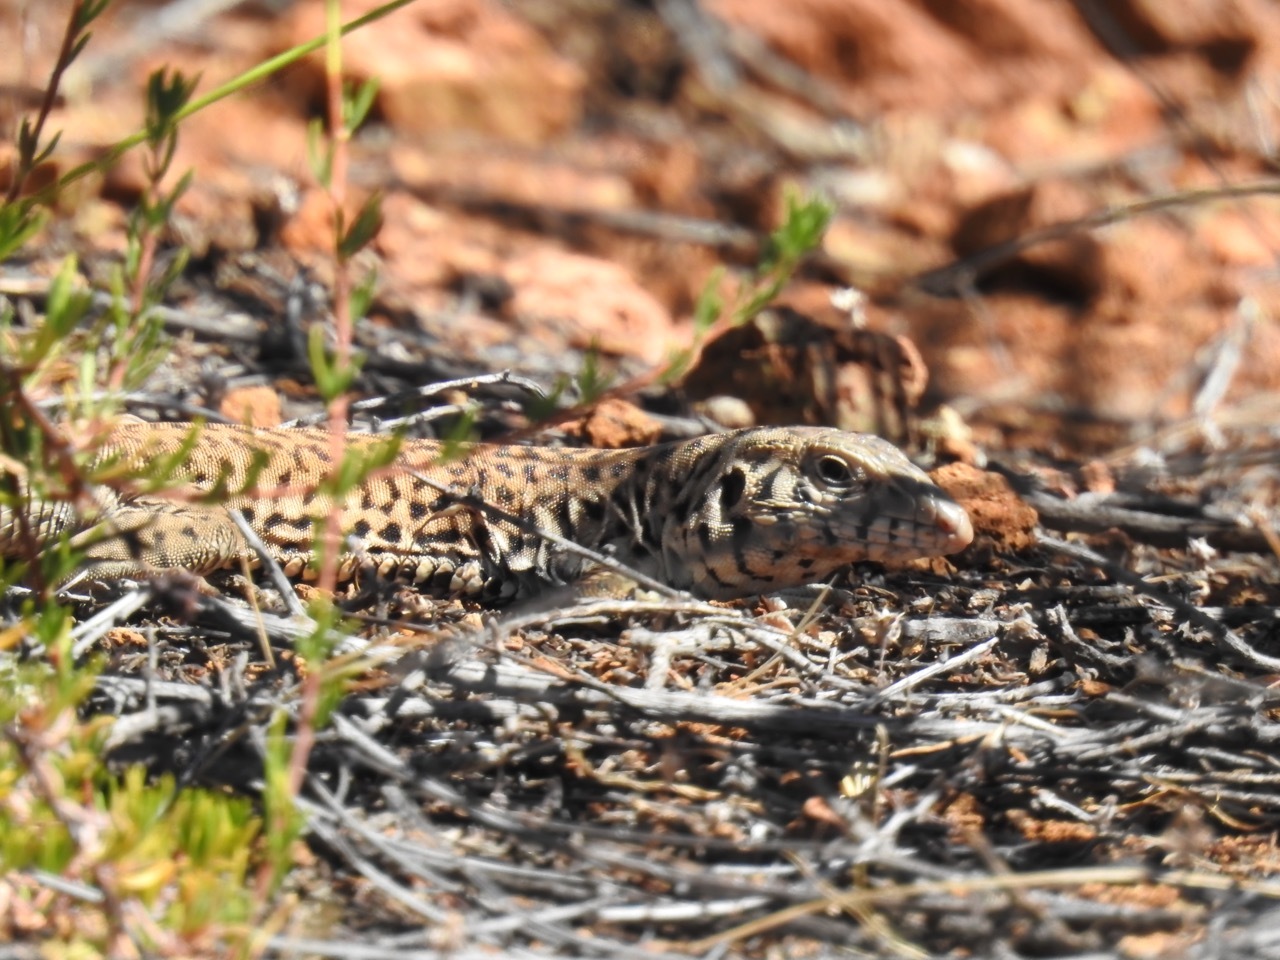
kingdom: Animalia
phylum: Chordata
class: Squamata
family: Teiidae
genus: Aspidoscelis
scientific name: Aspidoscelis tigris
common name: Tiger whiptail
